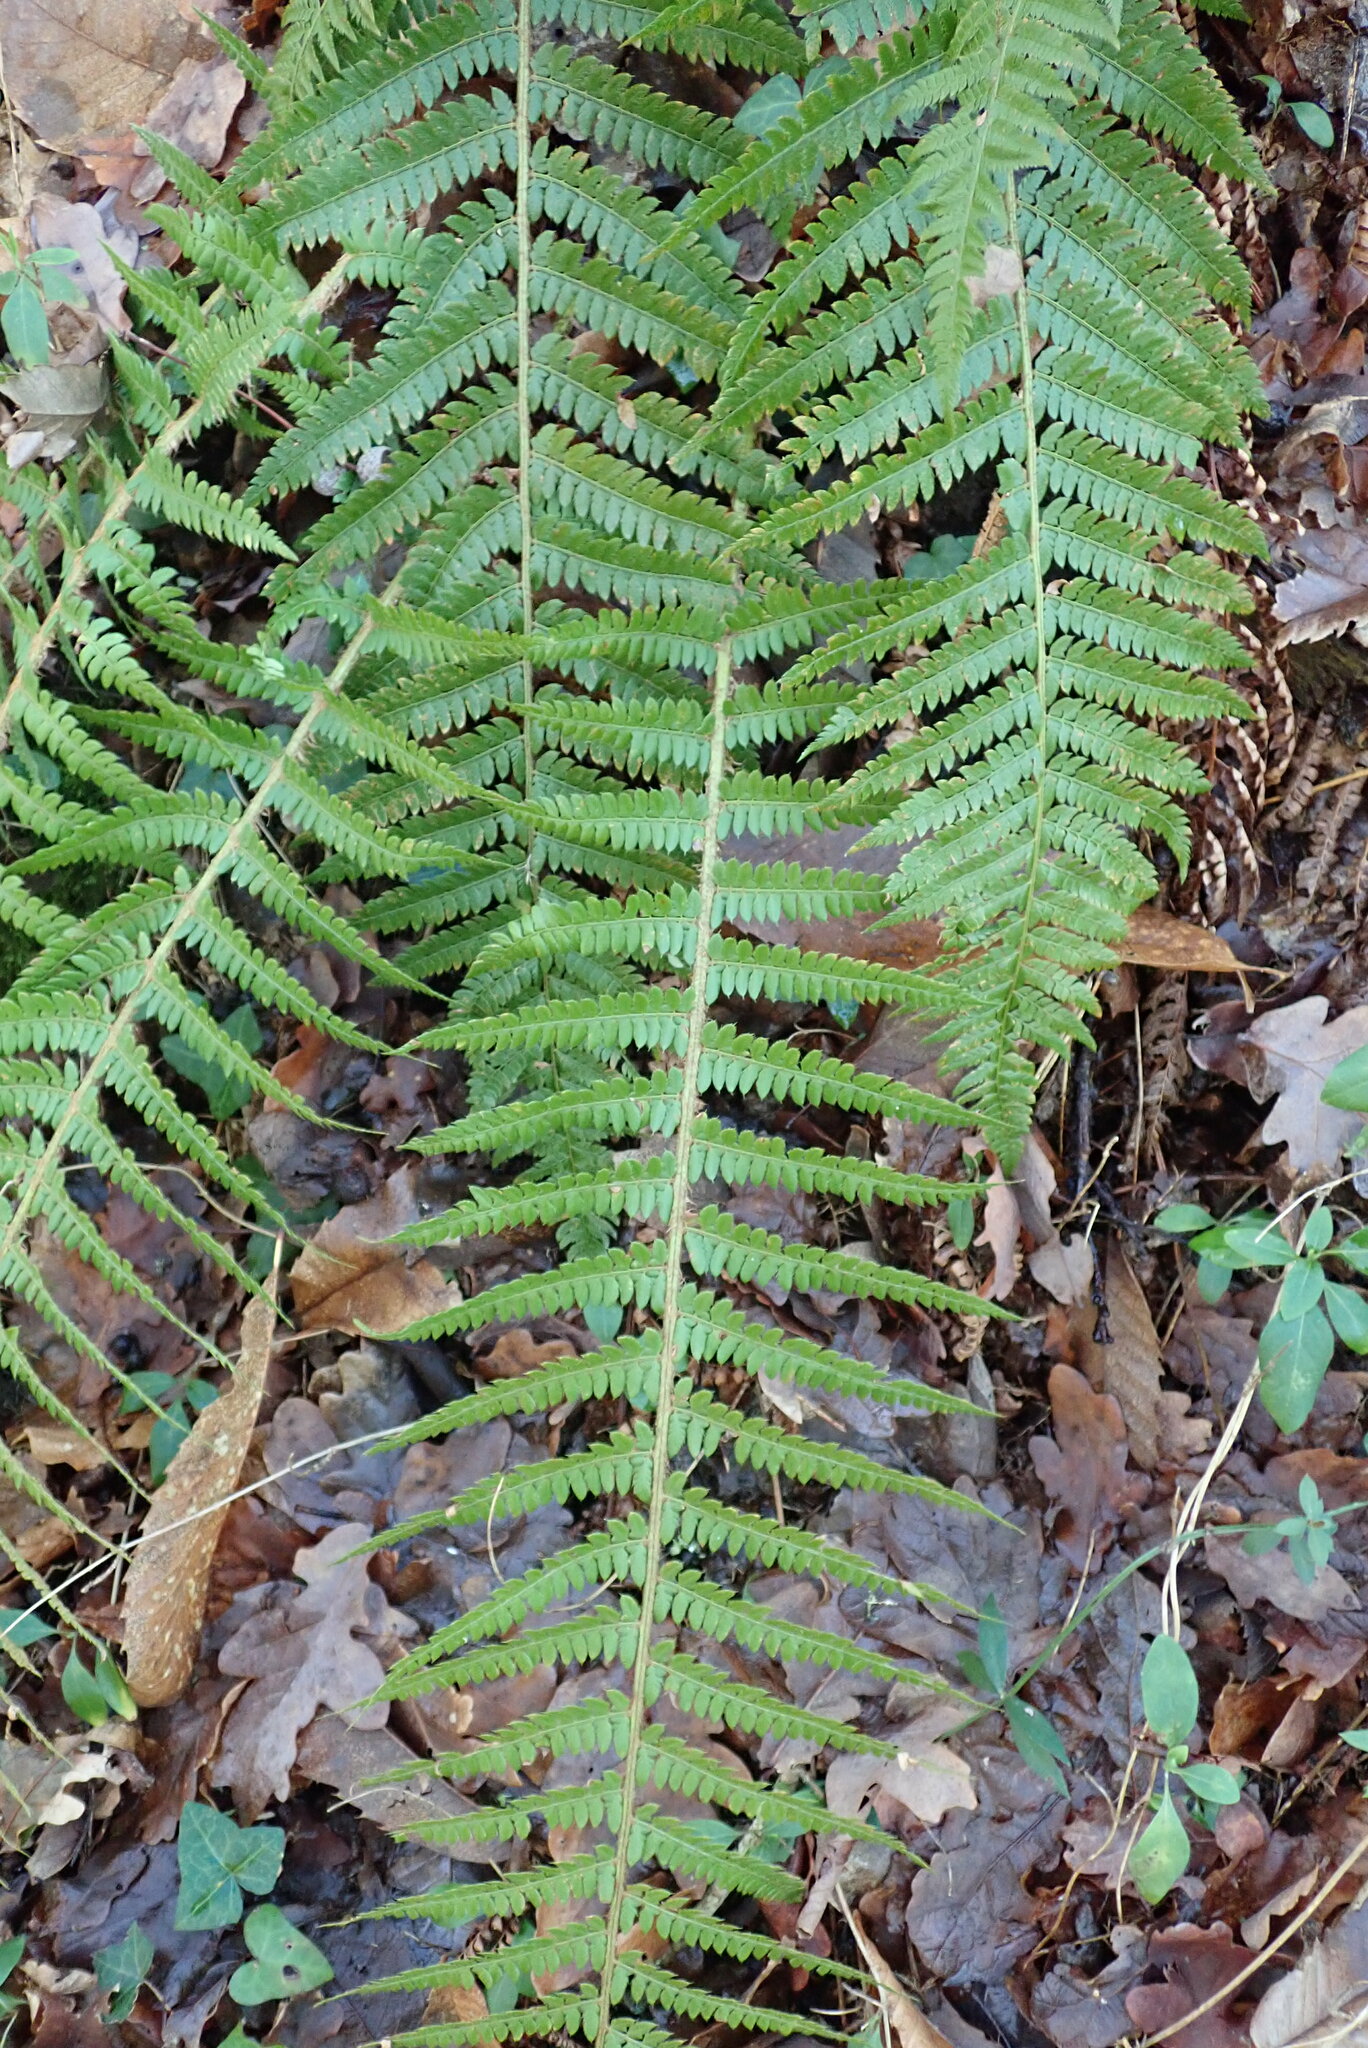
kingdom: Plantae
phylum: Tracheophyta
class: Polypodiopsida
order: Polypodiales
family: Dryopteridaceae
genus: Polystichum
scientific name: Polystichum setiferum
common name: Soft shield-fern
